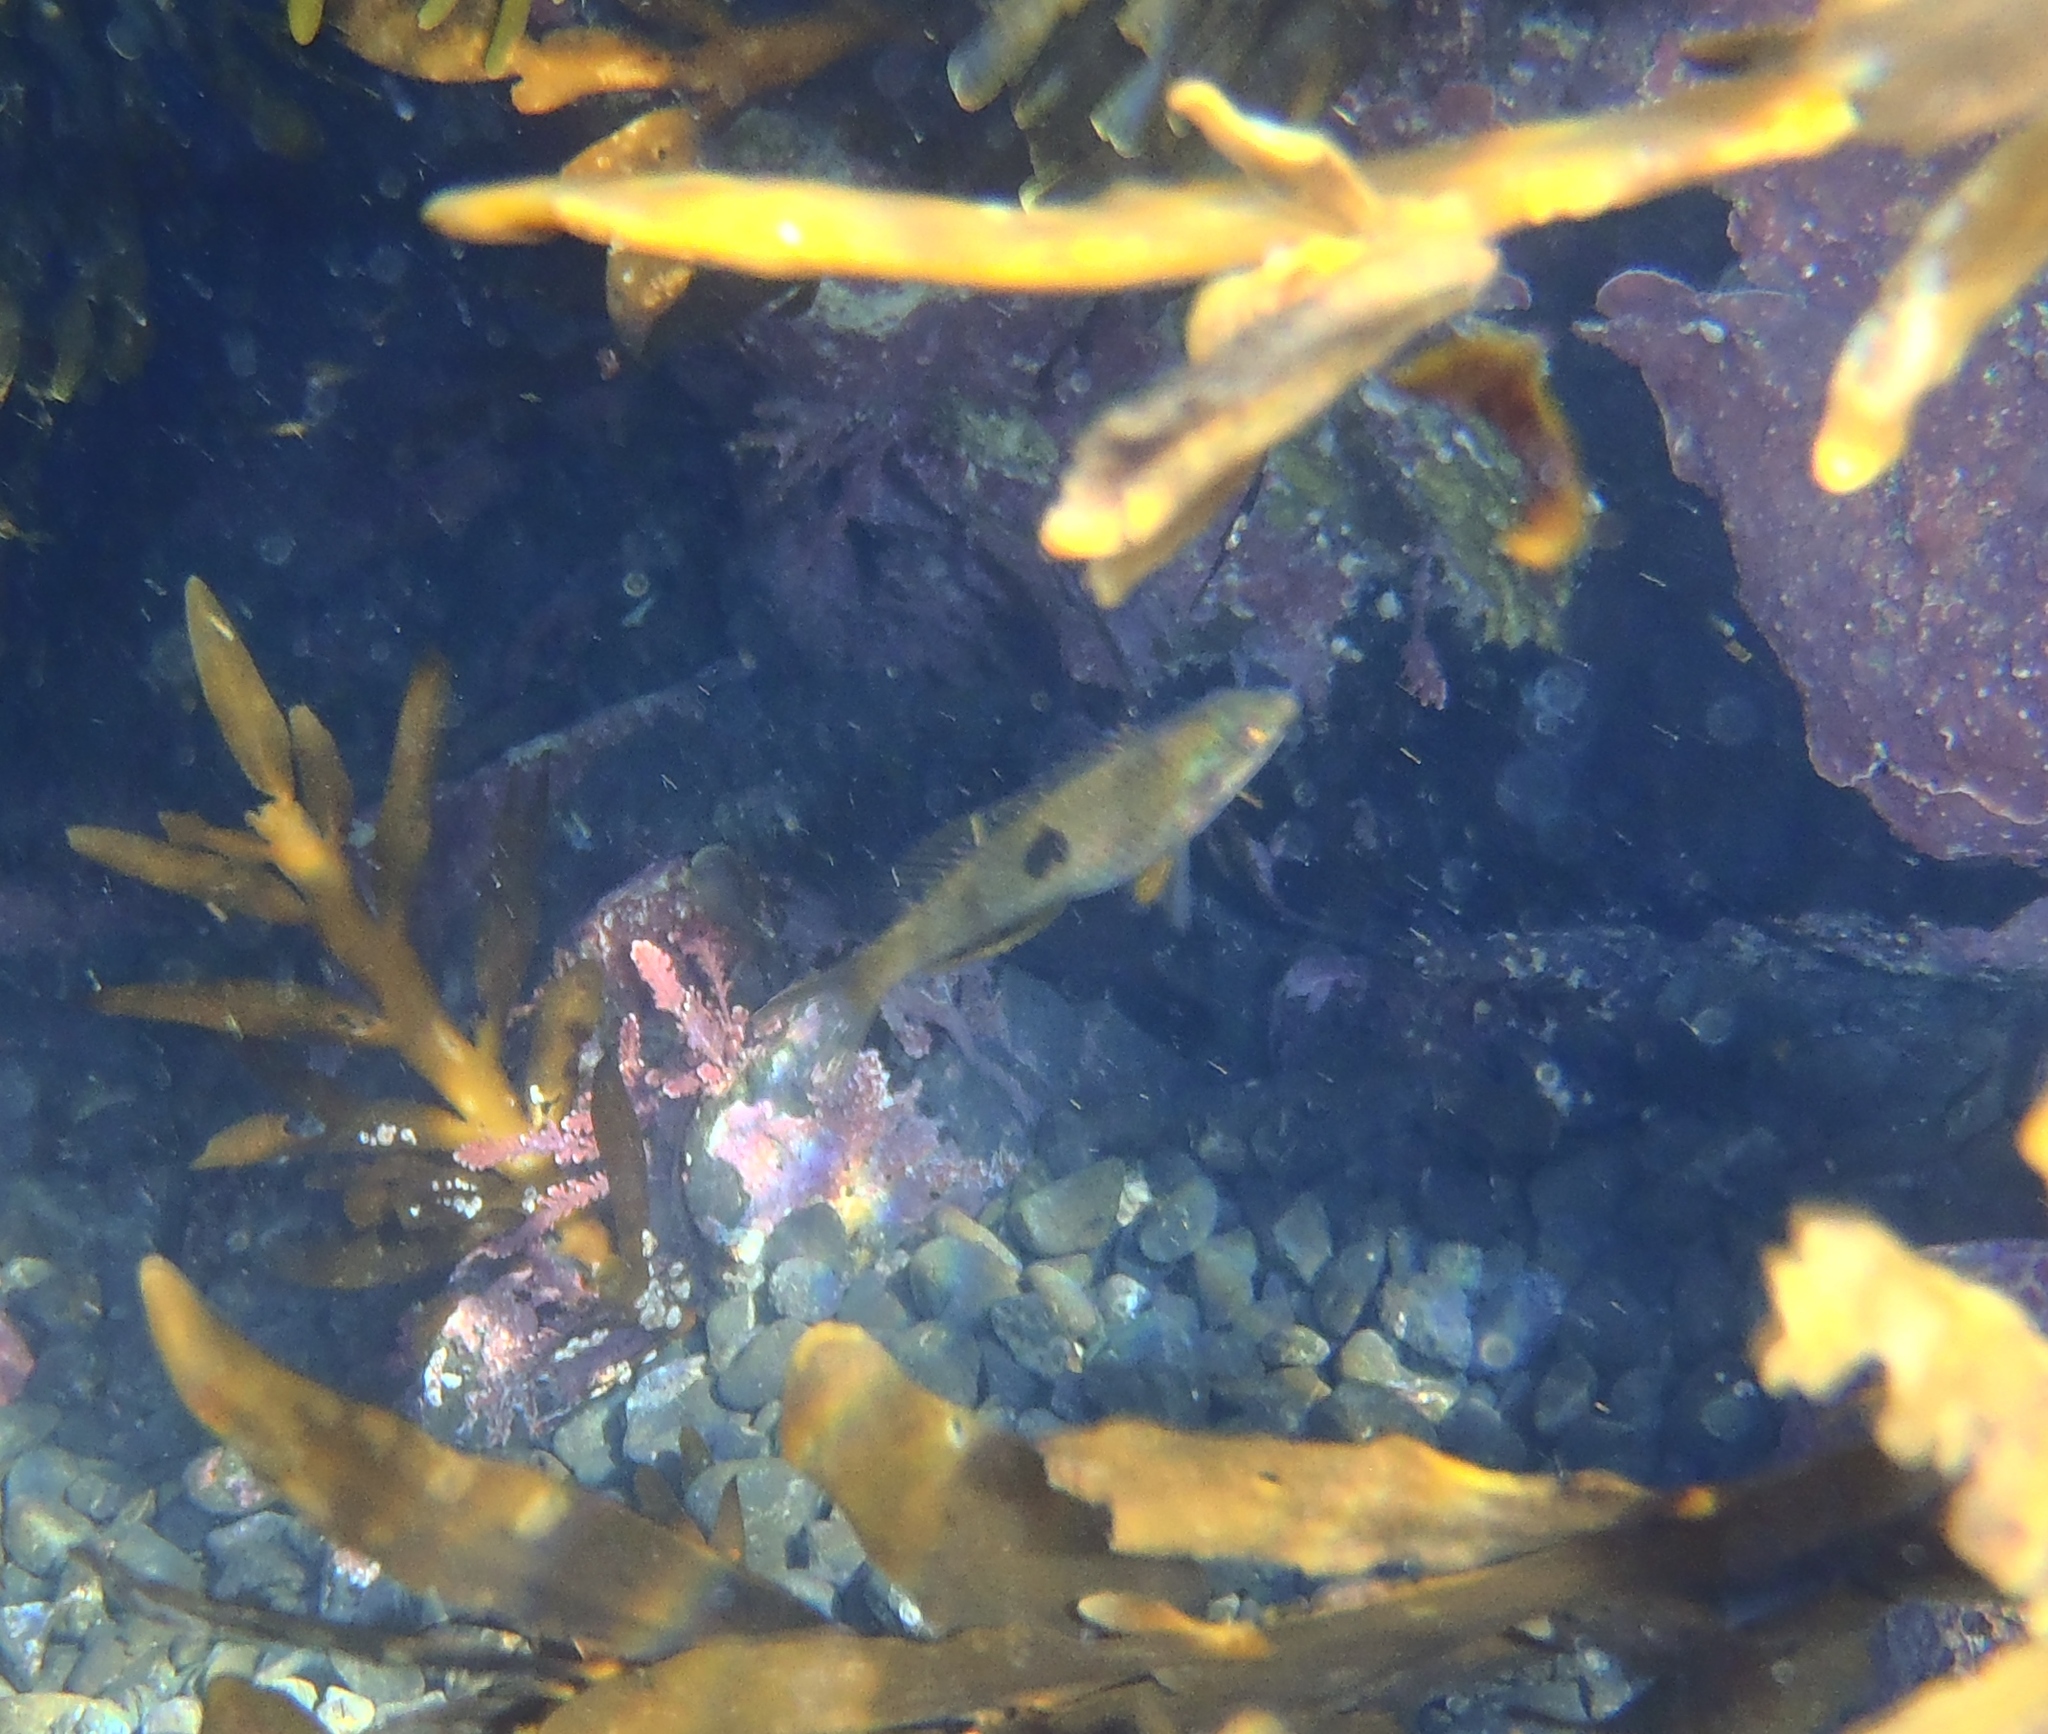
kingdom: Animalia
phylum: Chordata
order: Perciformes
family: Labridae
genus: Notolabrus
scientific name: Notolabrus celidotus
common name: Spotty
